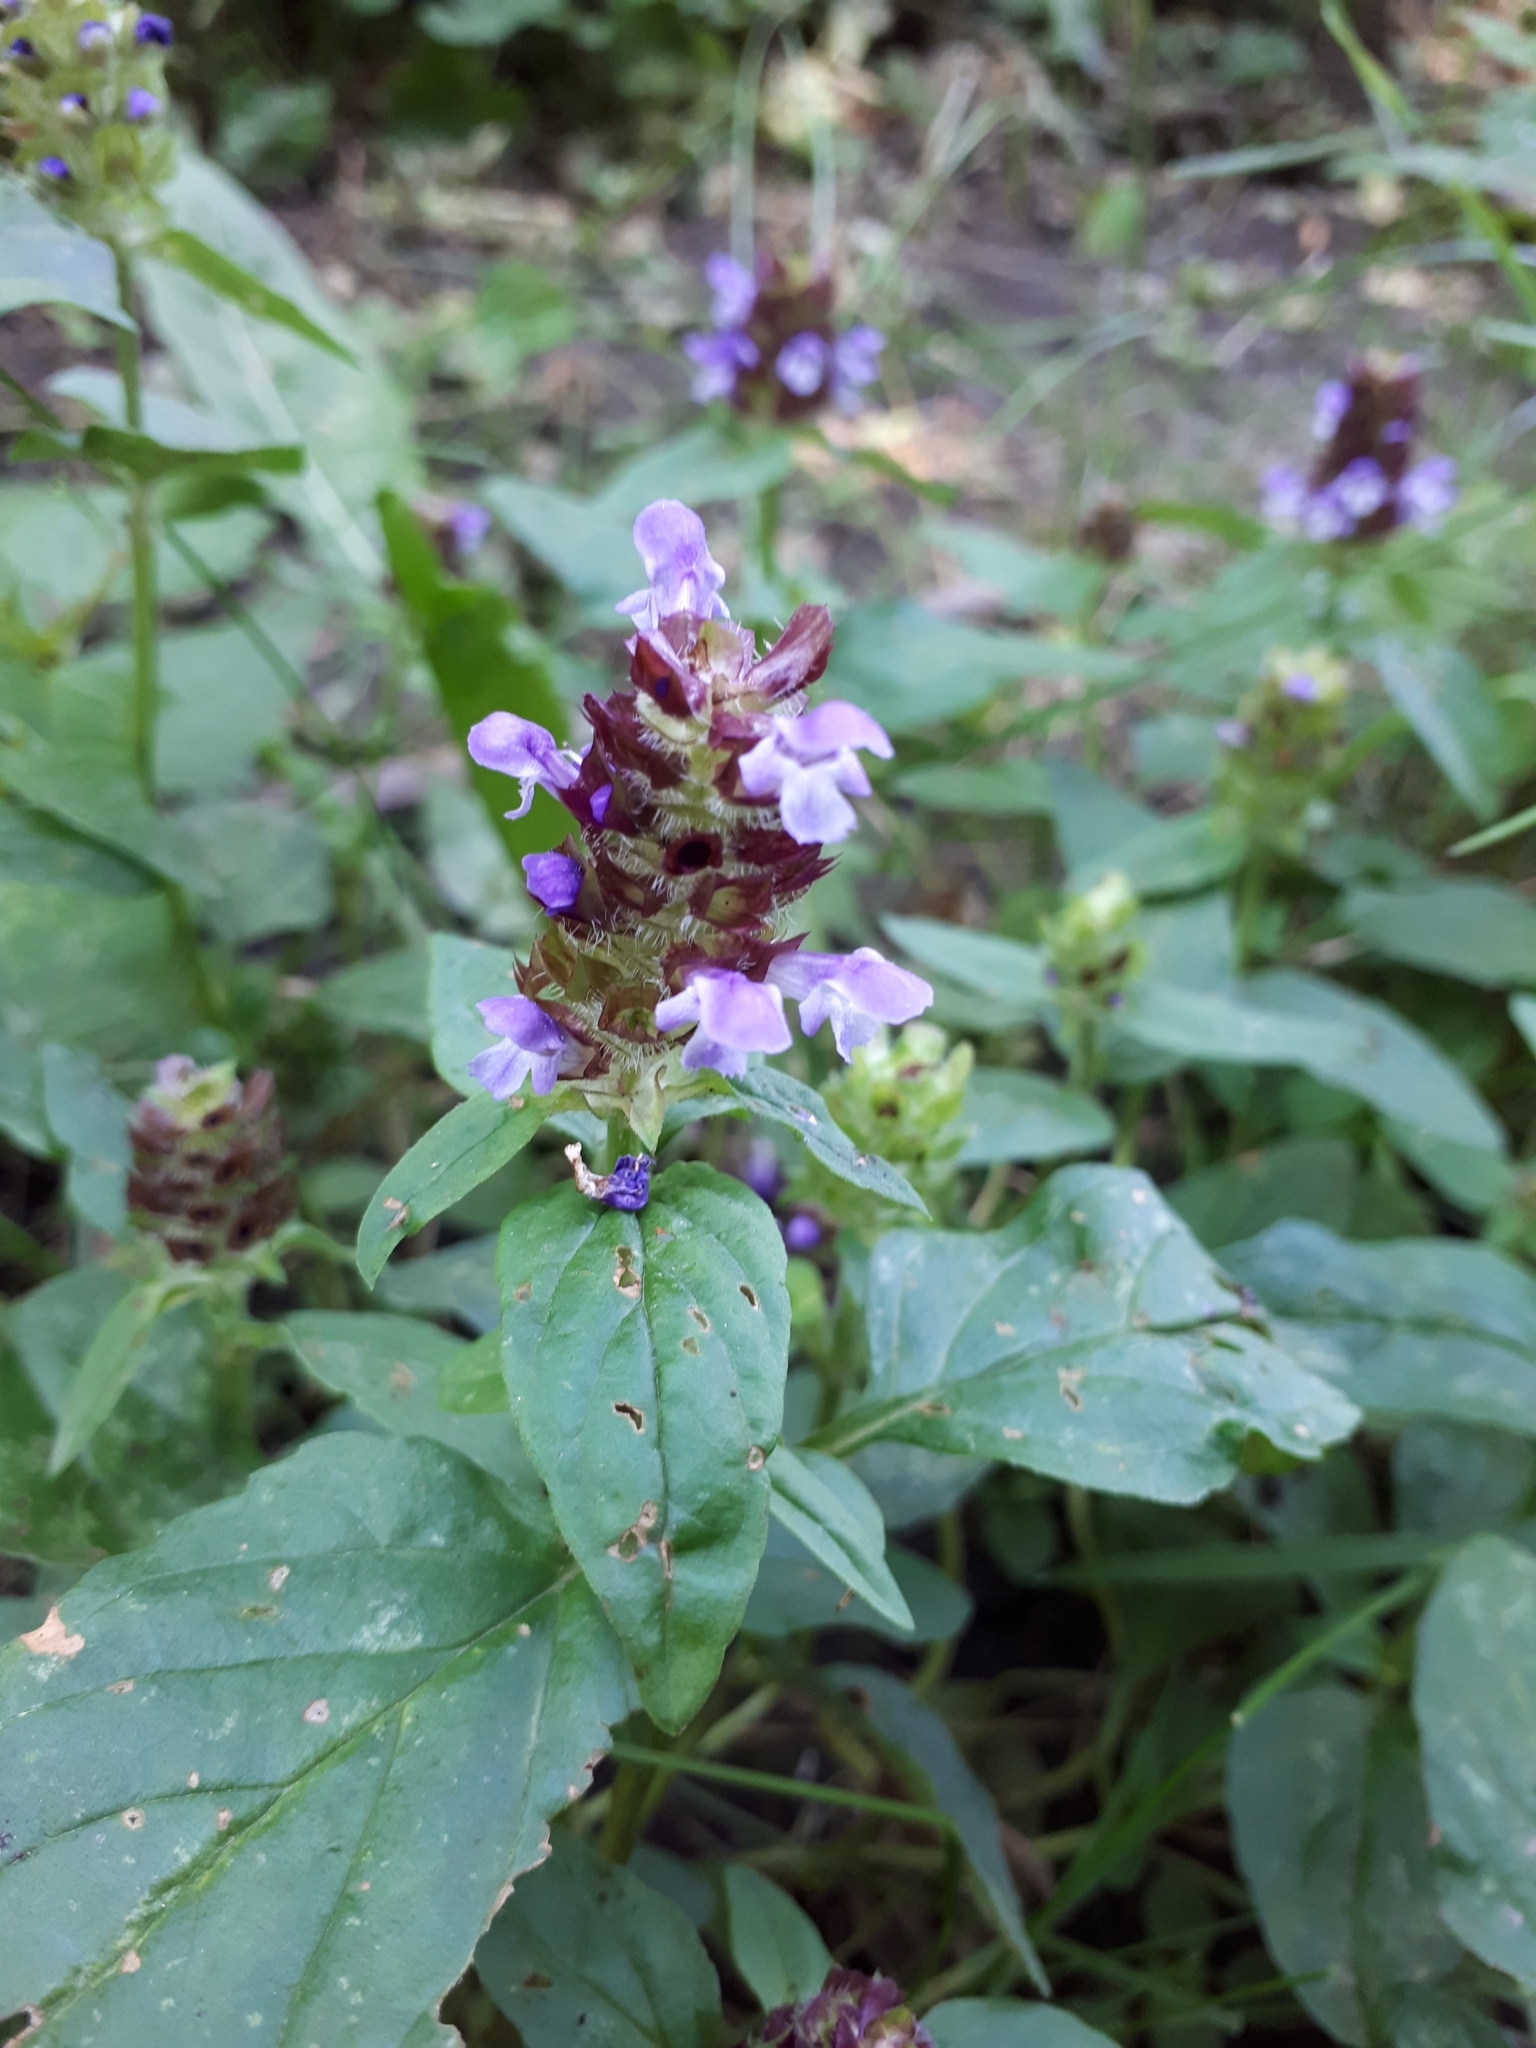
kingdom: Plantae
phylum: Tracheophyta
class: Magnoliopsida
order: Lamiales
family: Lamiaceae
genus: Prunella
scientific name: Prunella vulgaris
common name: Heal-all
